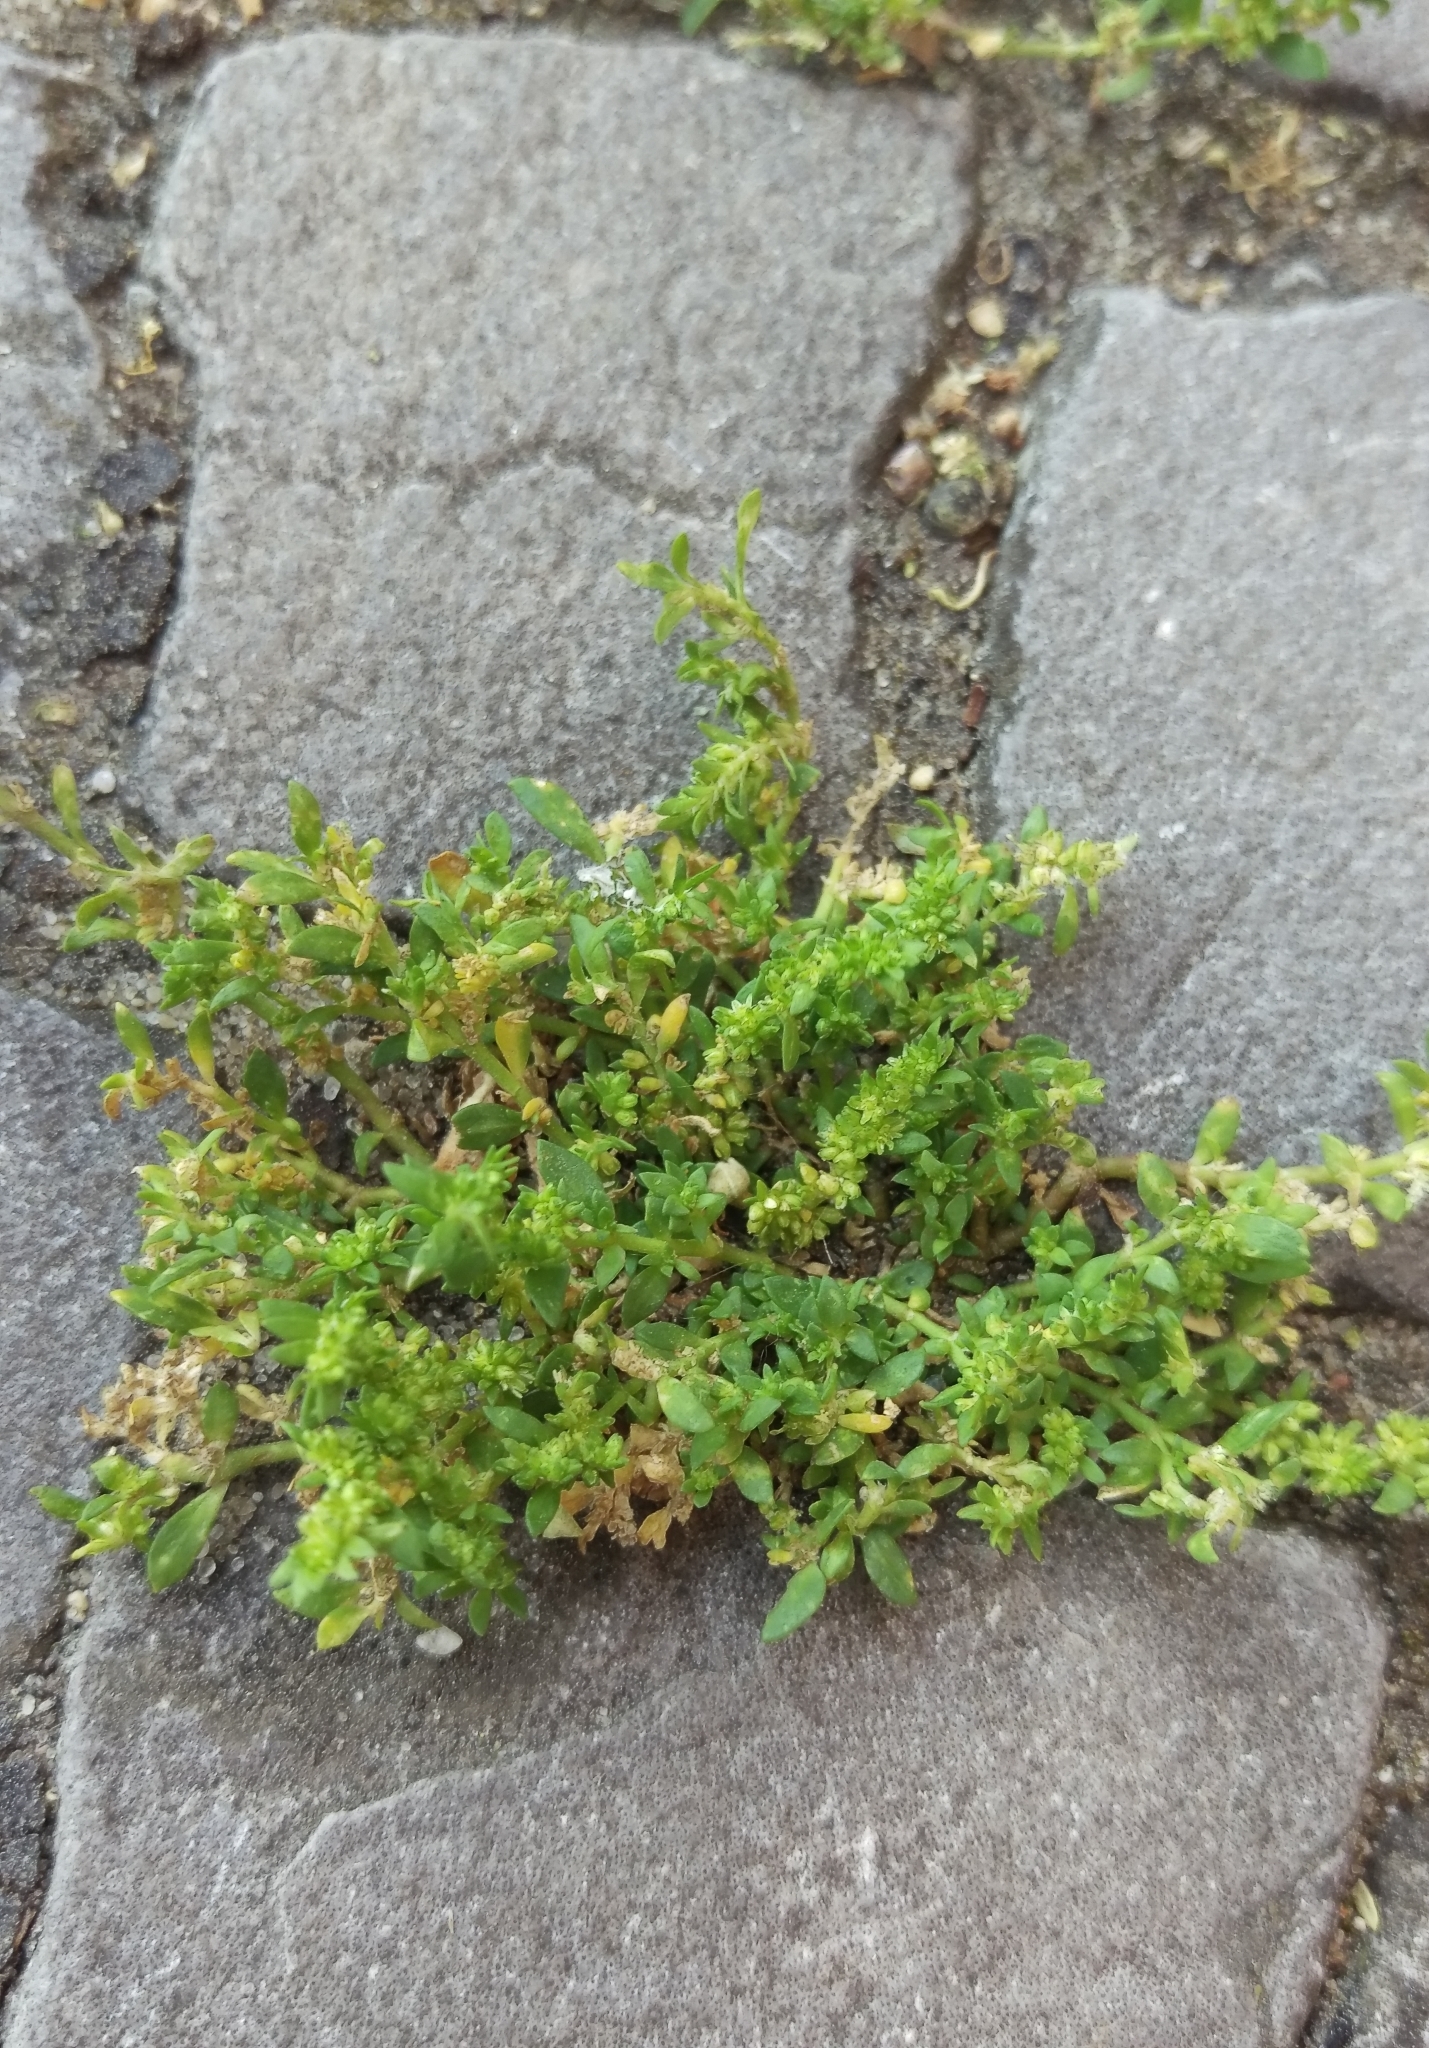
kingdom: Plantae
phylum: Tracheophyta
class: Magnoliopsida
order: Caryophyllales
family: Caryophyllaceae
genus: Herniaria
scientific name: Herniaria glabra
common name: Smooth rupturewort
